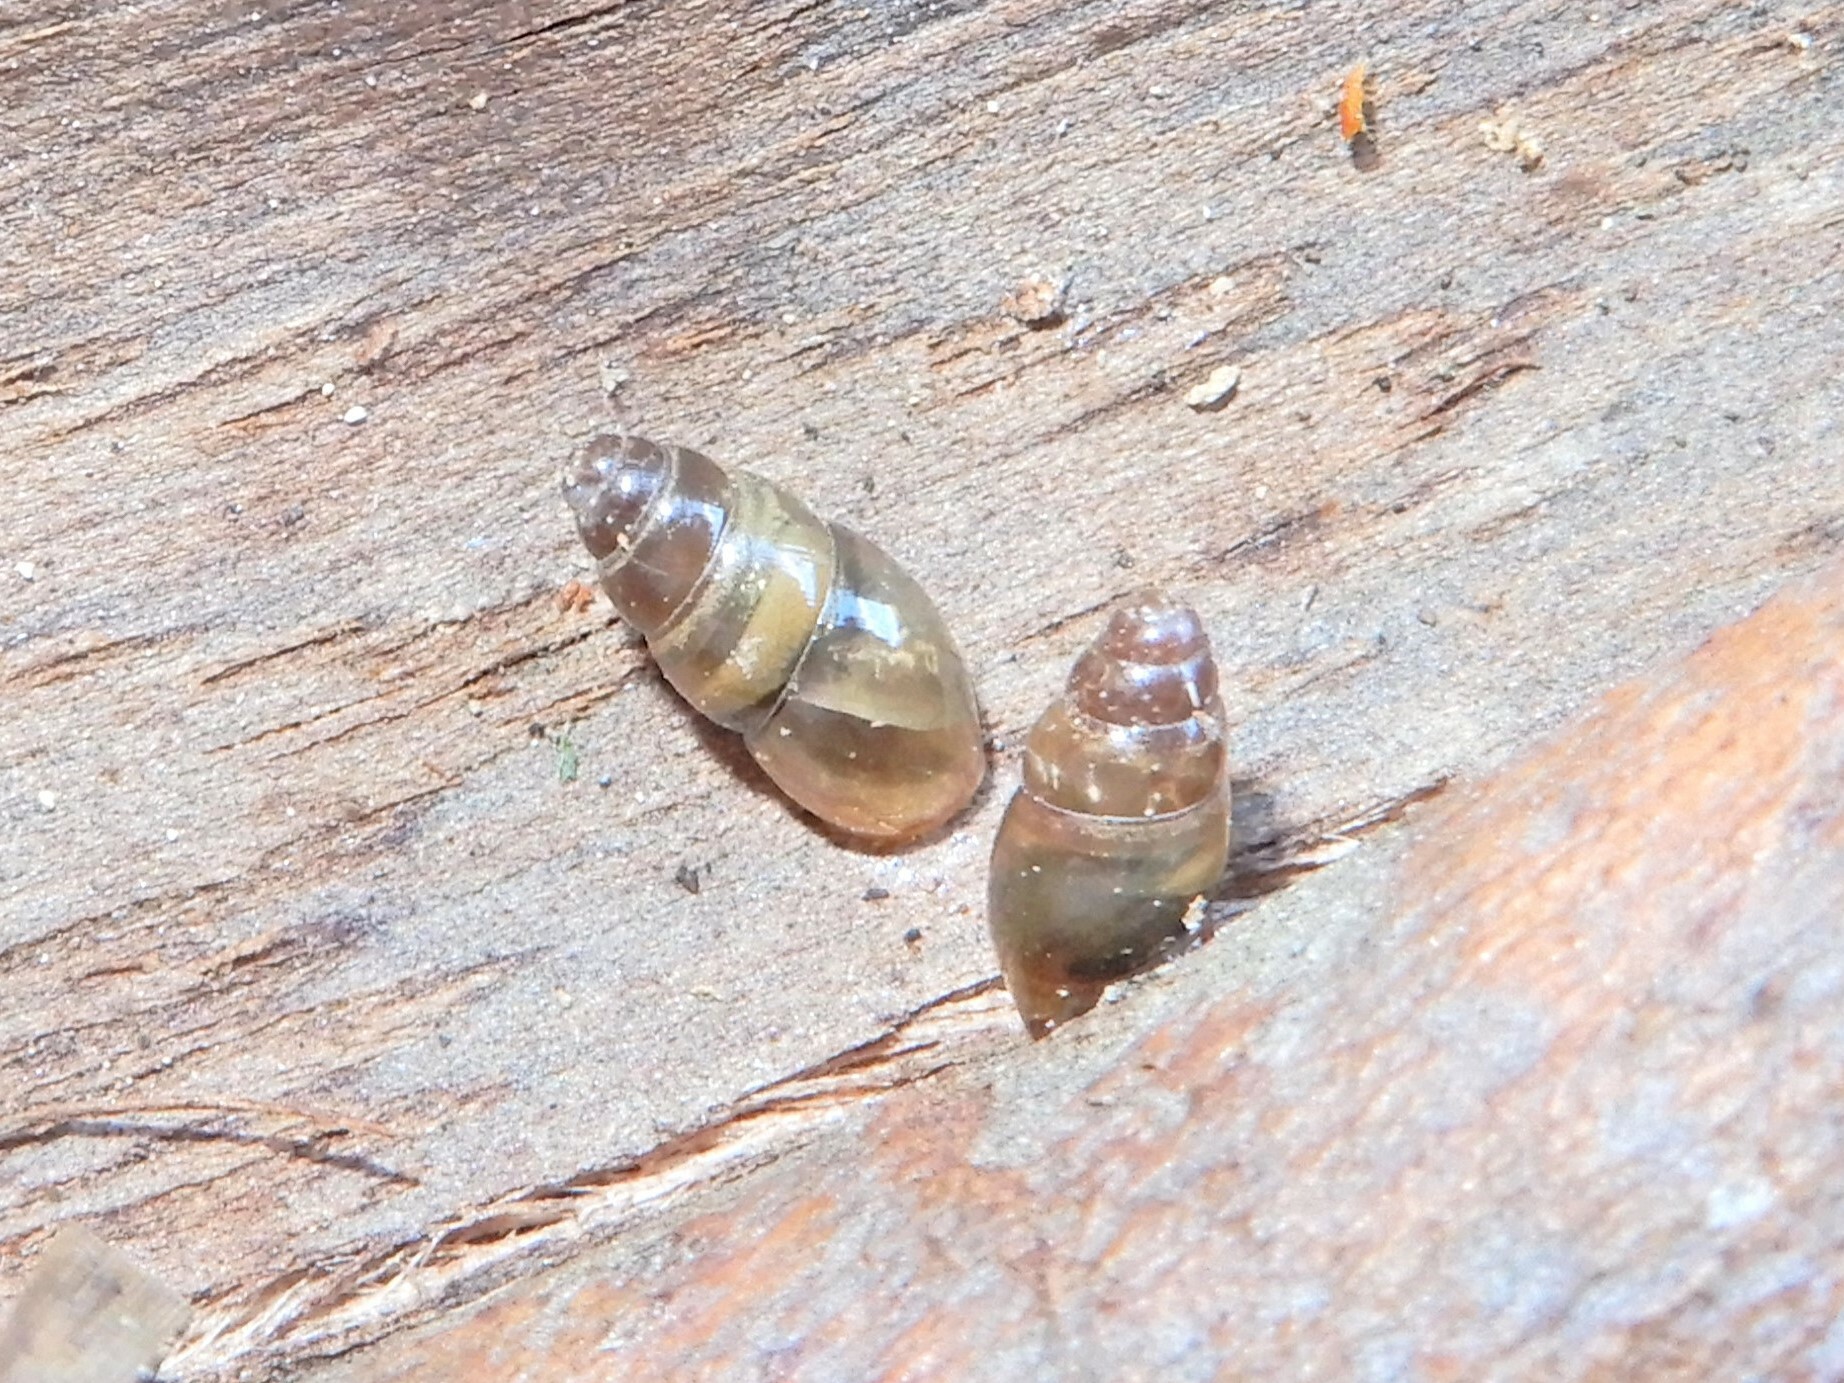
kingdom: Animalia
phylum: Mollusca
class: Gastropoda
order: Stylommatophora
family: Cochlicopidae
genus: Cochlicopa
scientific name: Cochlicopa lubrica
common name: Glossy pillar snail
